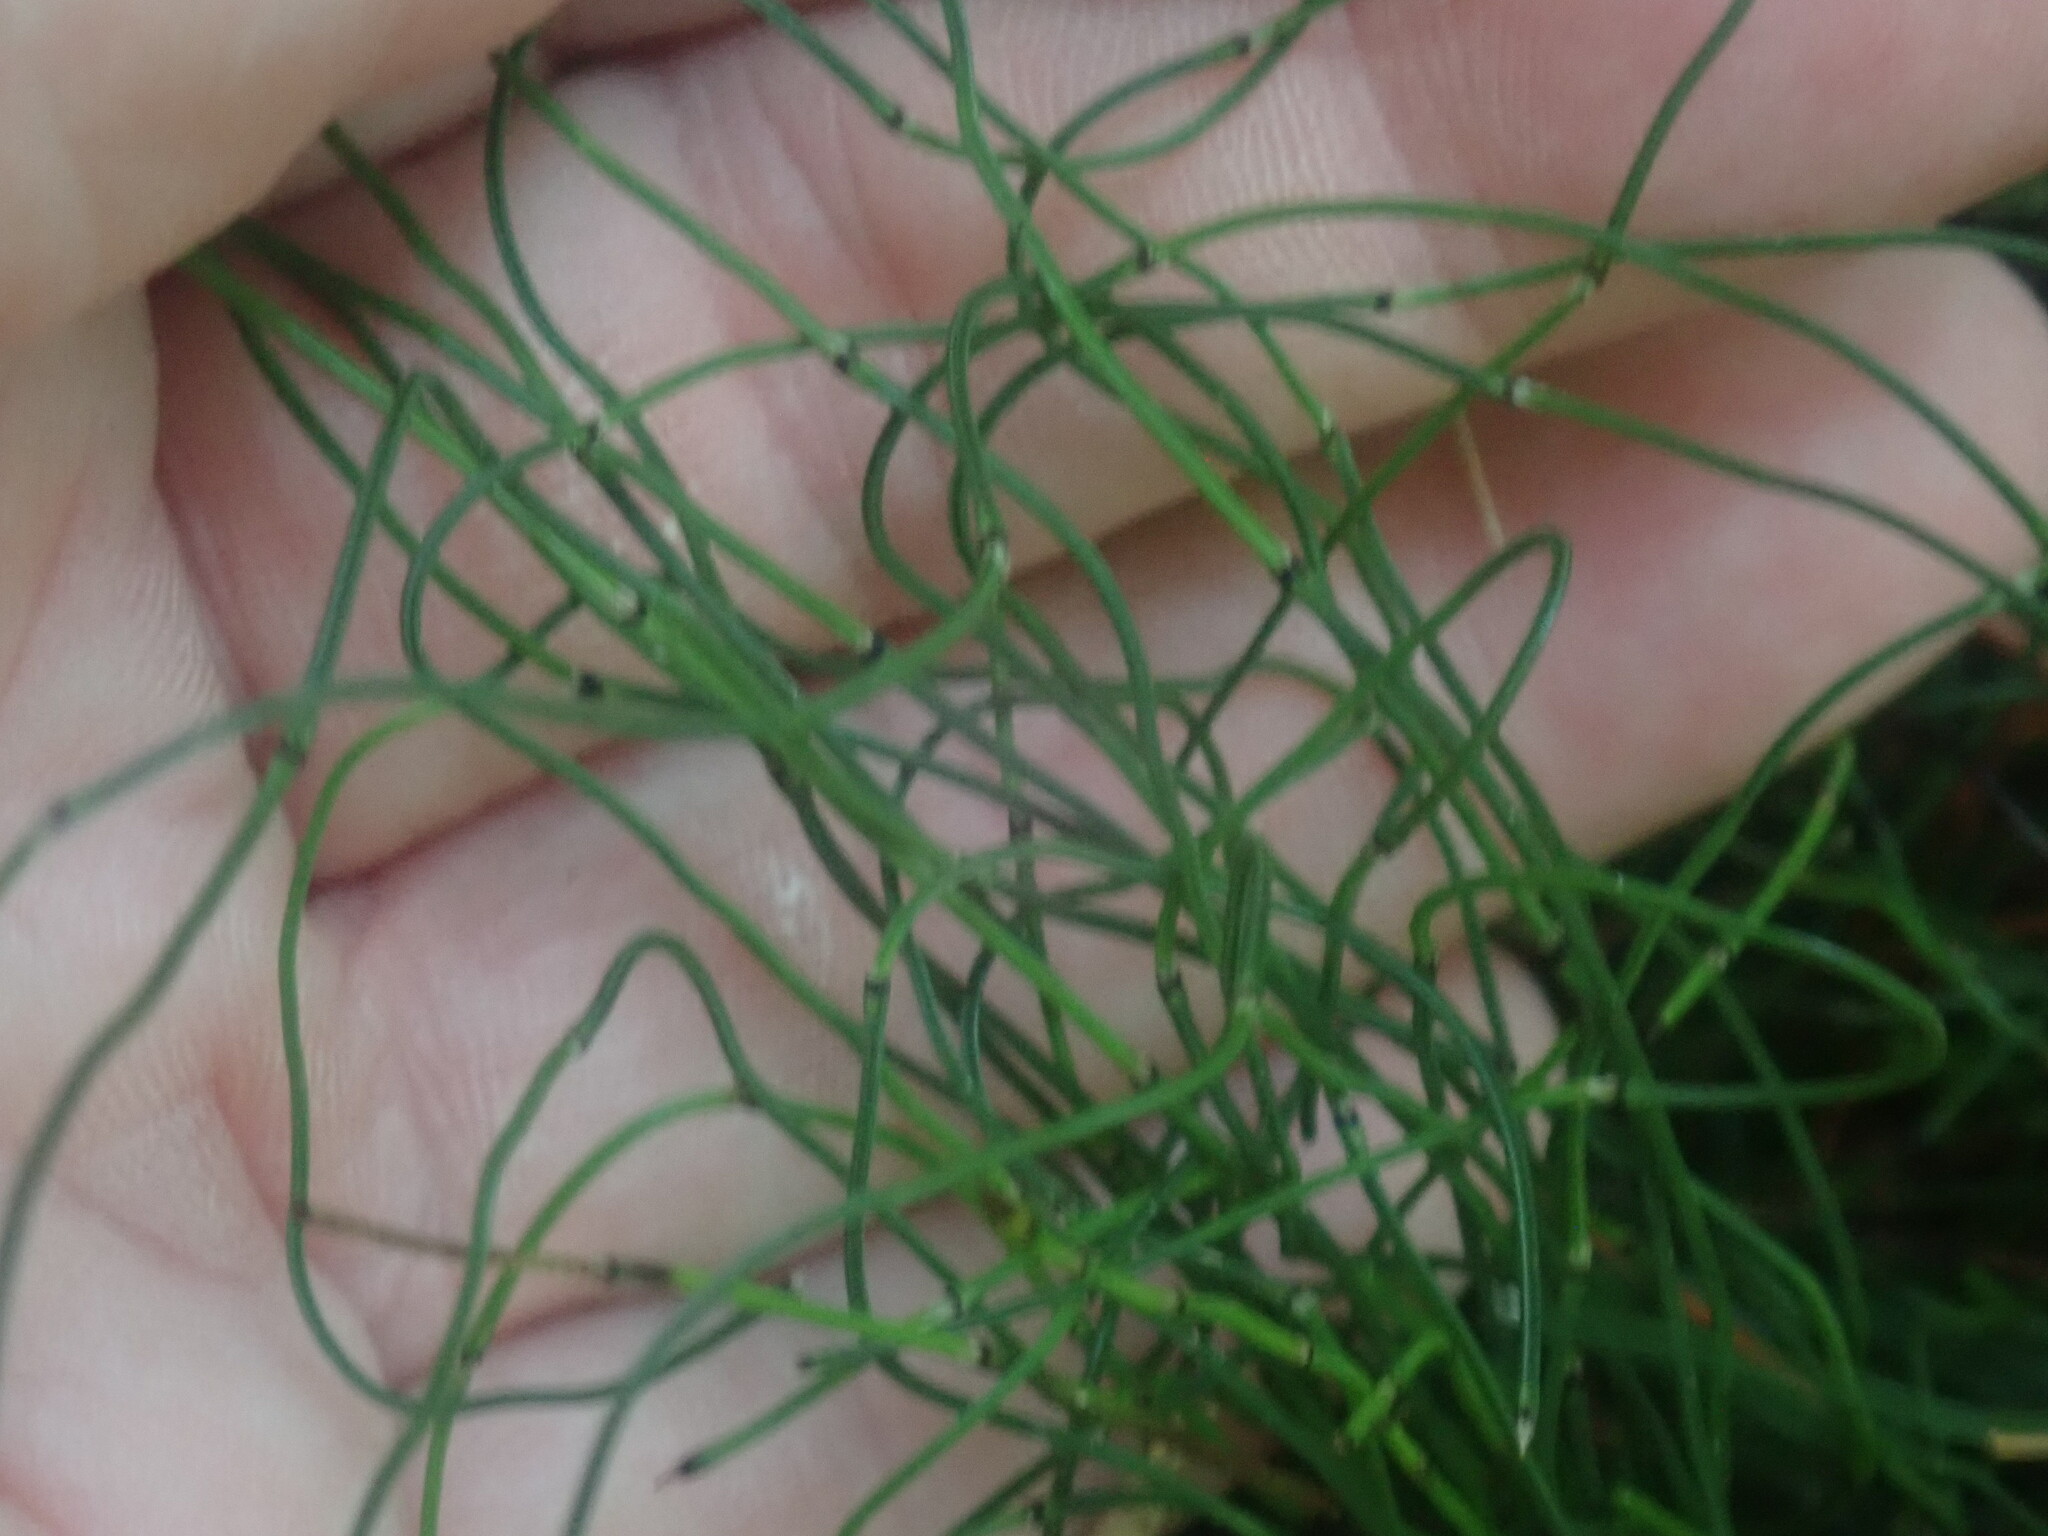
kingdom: Plantae
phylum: Tracheophyta
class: Polypodiopsida
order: Equisetales
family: Equisetaceae
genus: Equisetum
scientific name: Equisetum scirpoides
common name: Delicate horsetail
